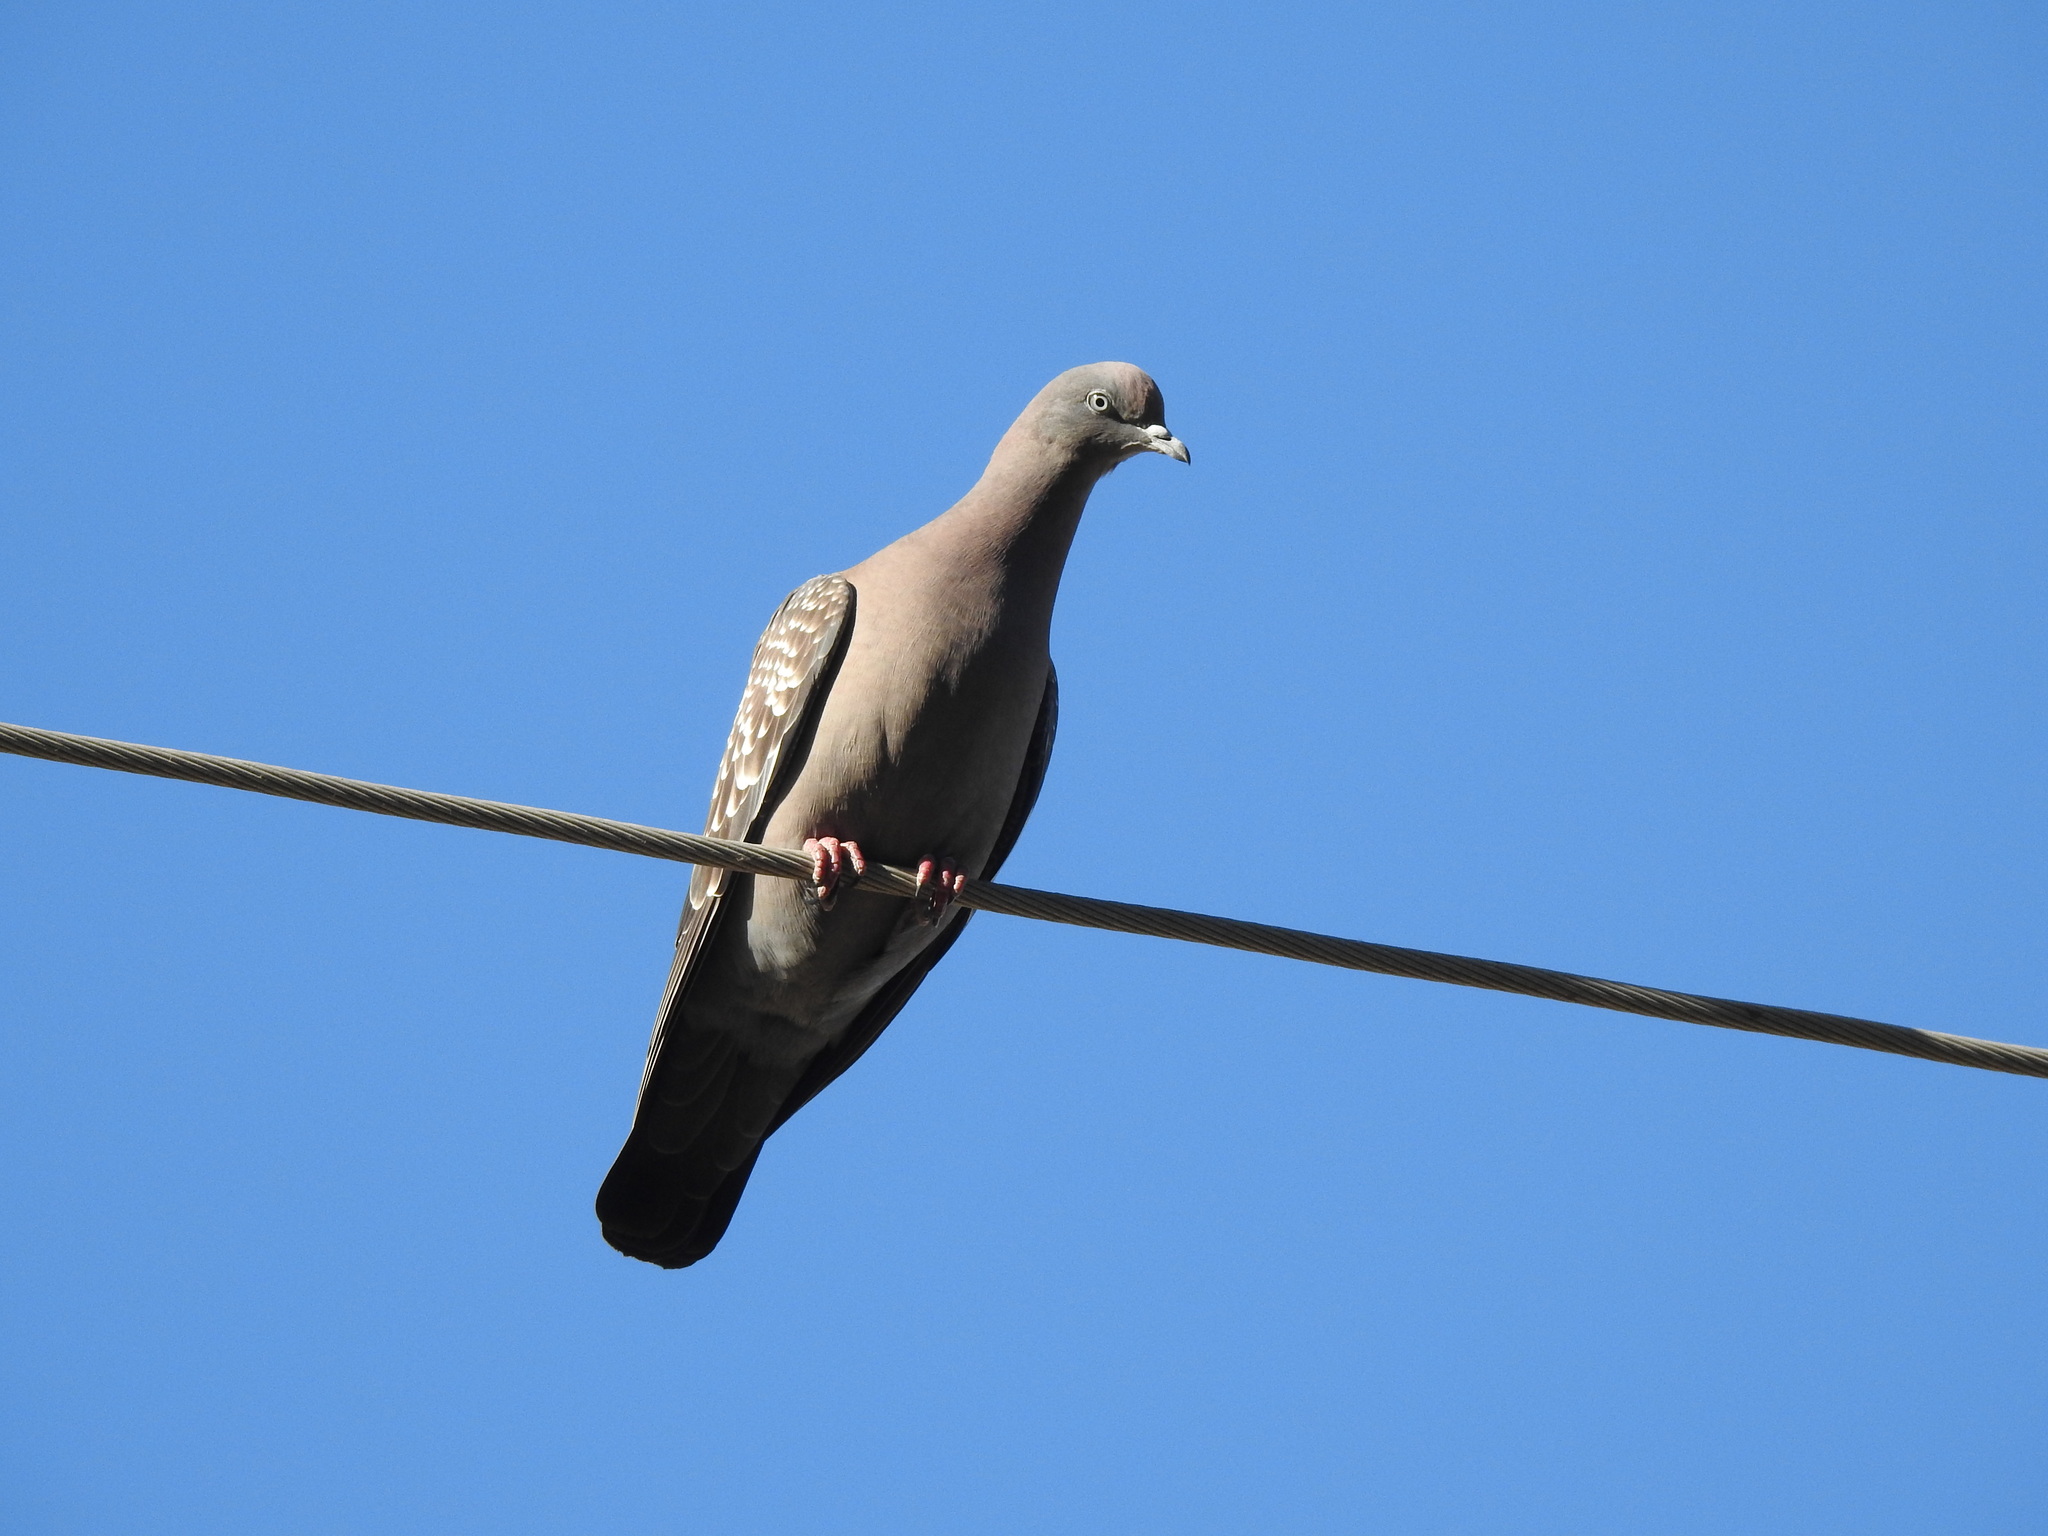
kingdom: Animalia
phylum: Chordata
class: Aves
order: Columbiformes
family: Columbidae
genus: Patagioenas
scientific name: Patagioenas maculosa
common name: Spot-winged pigeon
